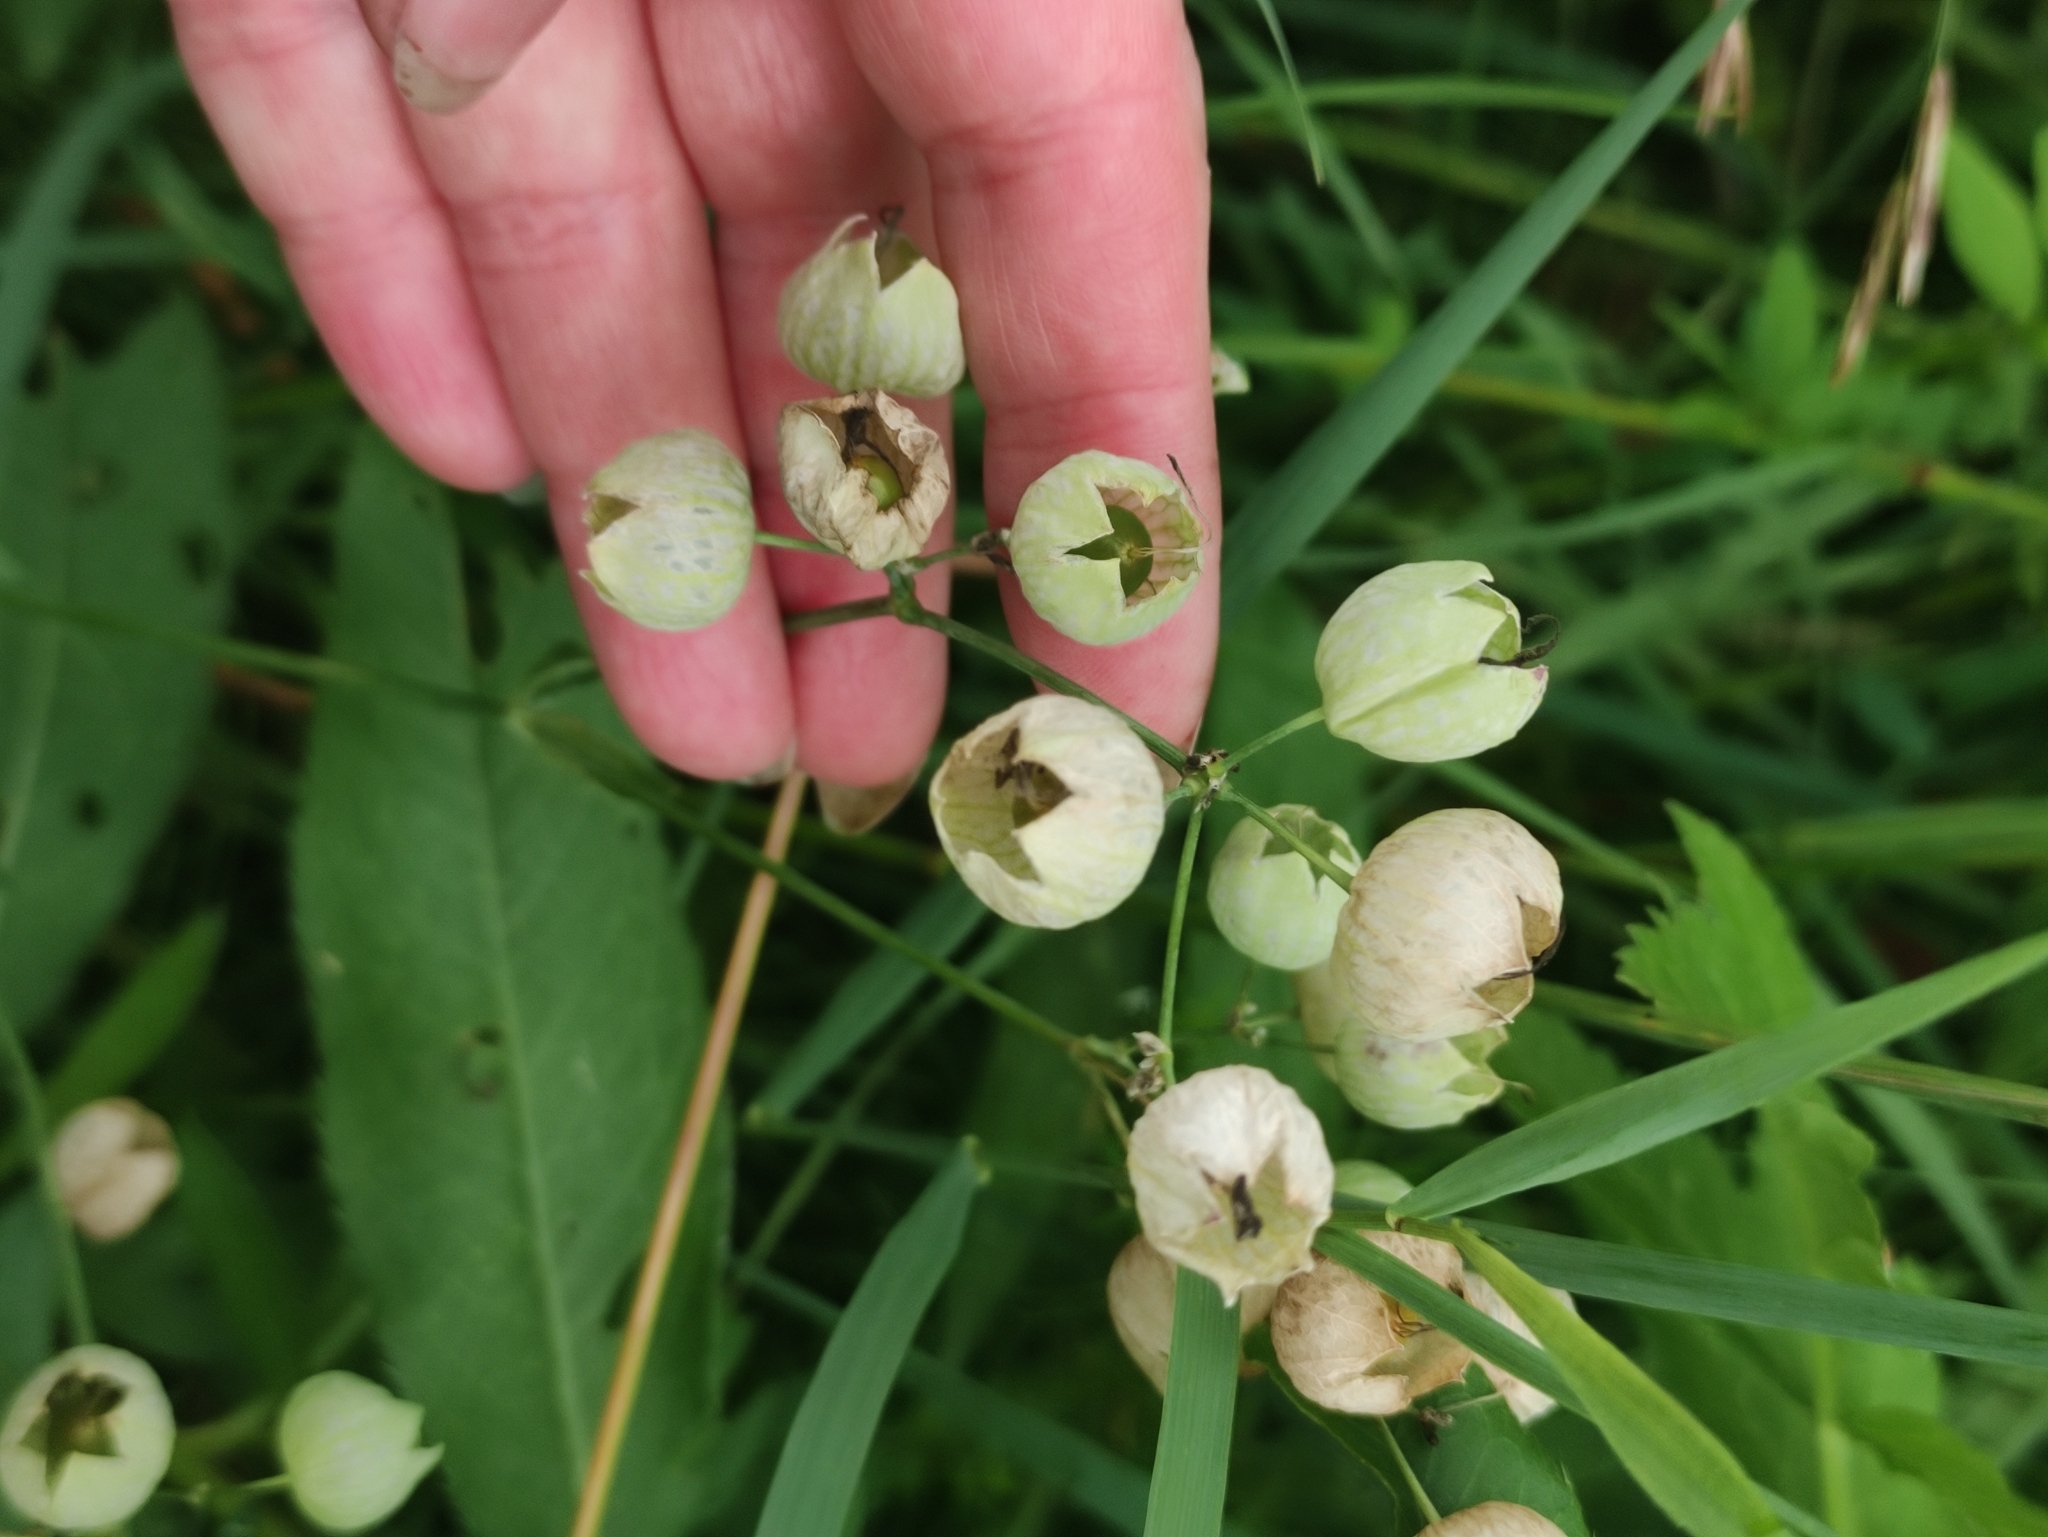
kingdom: Plantae
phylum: Tracheophyta
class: Magnoliopsida
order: Caryophyllales
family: Caryophyllaceae
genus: Silene
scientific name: Silene vulgaris
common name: Bladder campion
